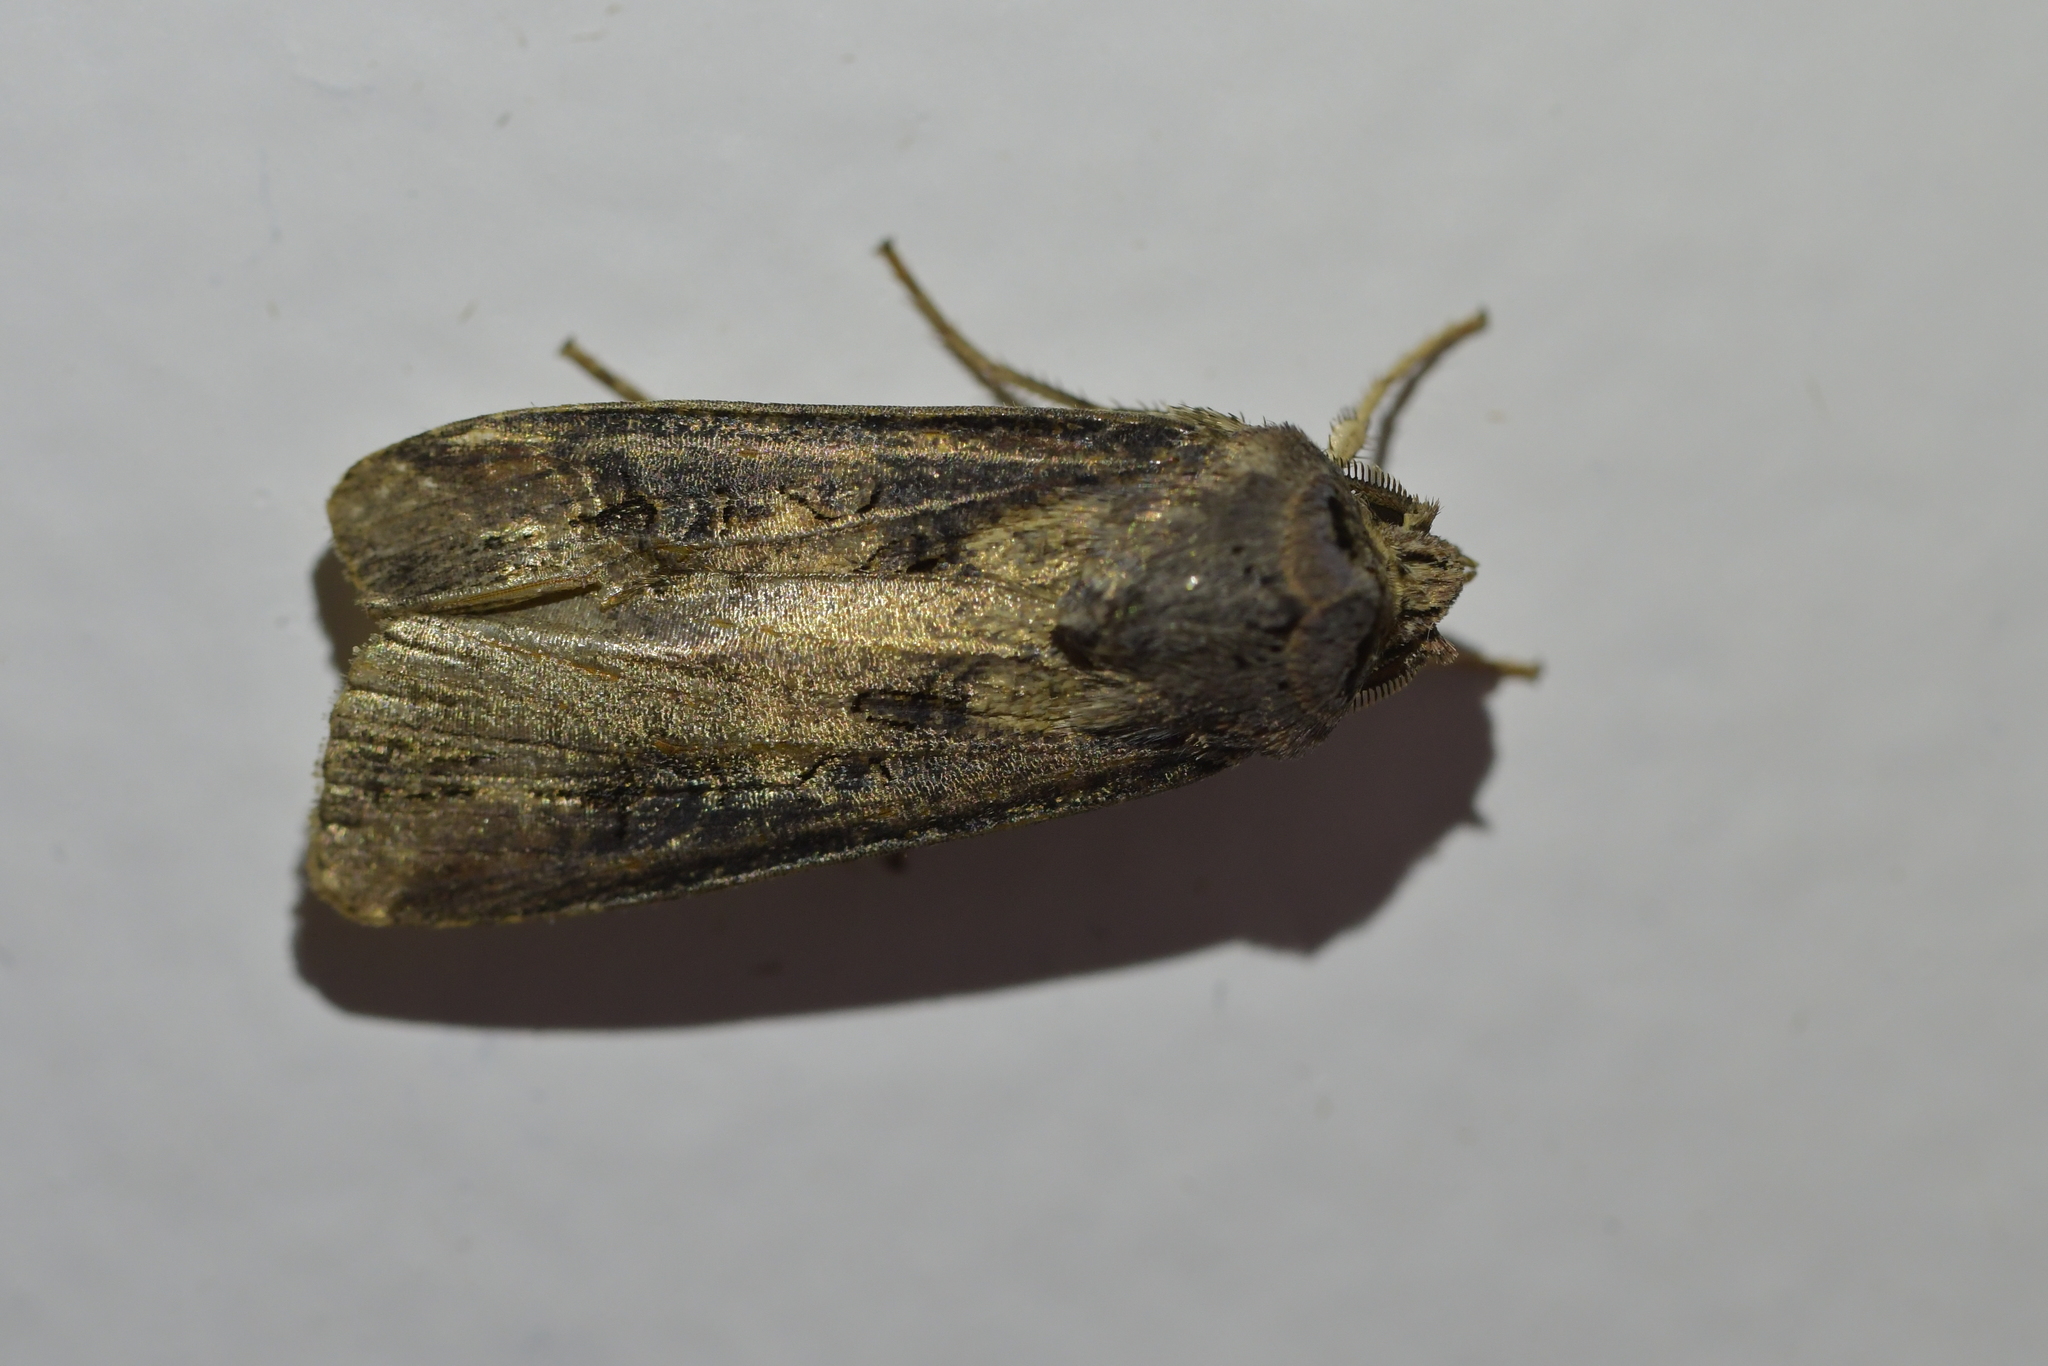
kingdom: Animalia
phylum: Arthropoda
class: Insecta
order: Lepidoptera
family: Noctuidae
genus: Agrotis
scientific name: Agrotis ipsilon
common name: Dark sword-grass
